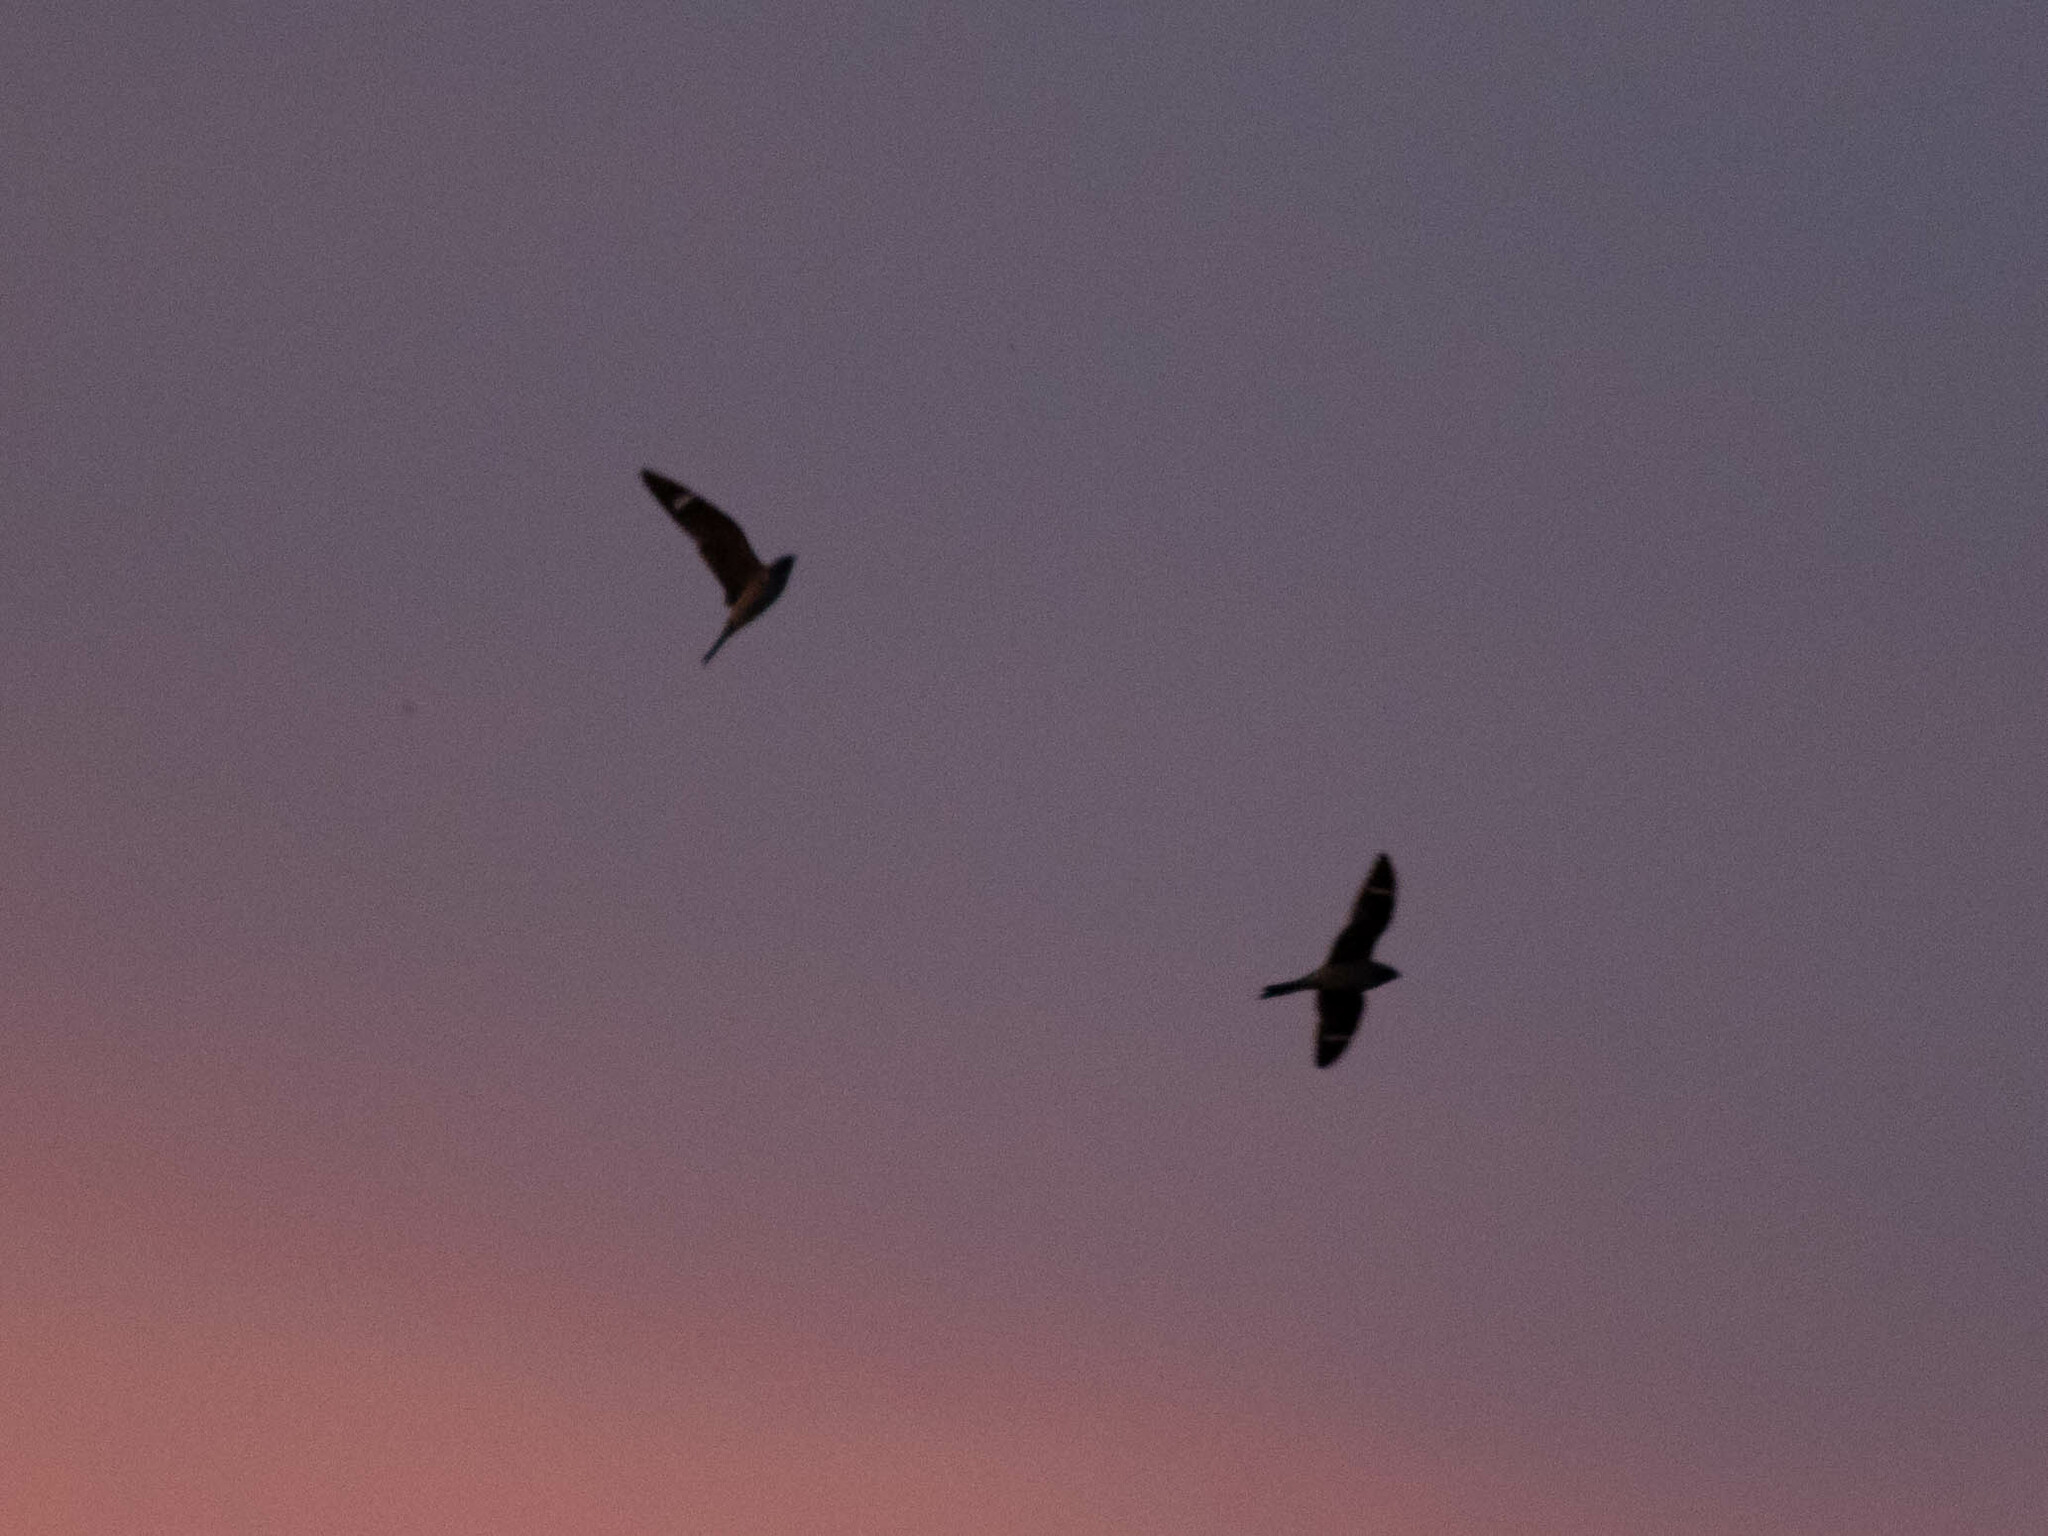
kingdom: Animalia
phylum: Chordata
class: Aves
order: Caprimulgiformes
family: Caprimulgidae
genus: Chordeiles
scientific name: Chordeiles minor
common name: Common nighthawk
